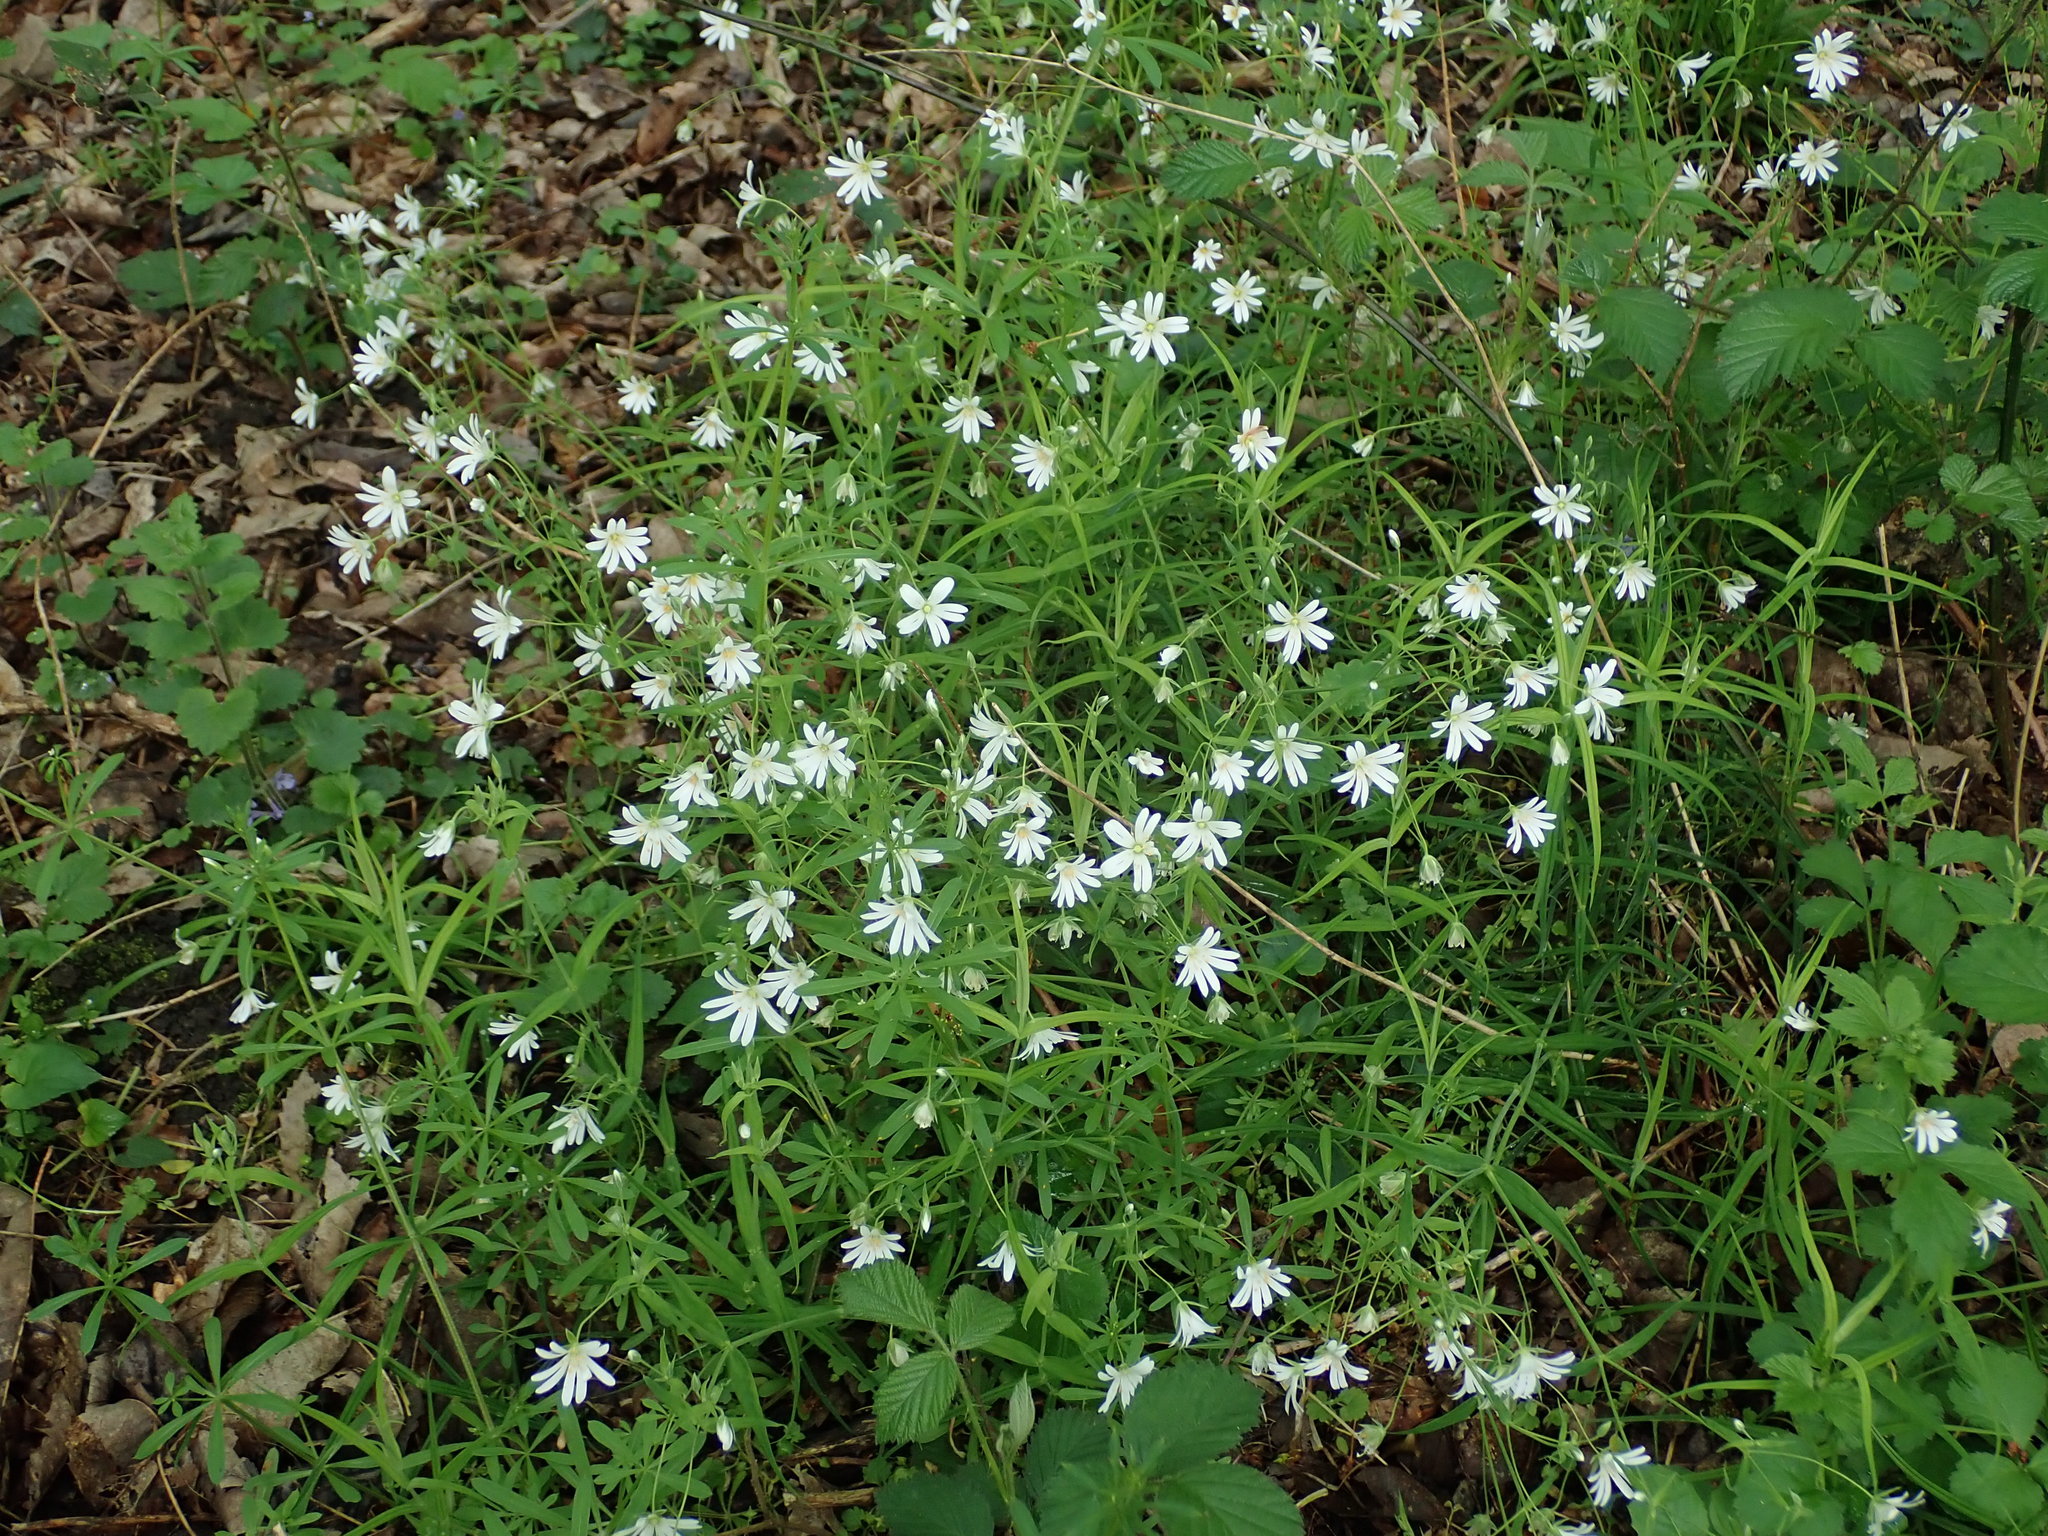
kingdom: Plantae
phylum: Tracheophyta
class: Magnoliopsida
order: Caryophyllales
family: Caryophyllaceae
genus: Rabelera
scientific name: Rabelera holostea
